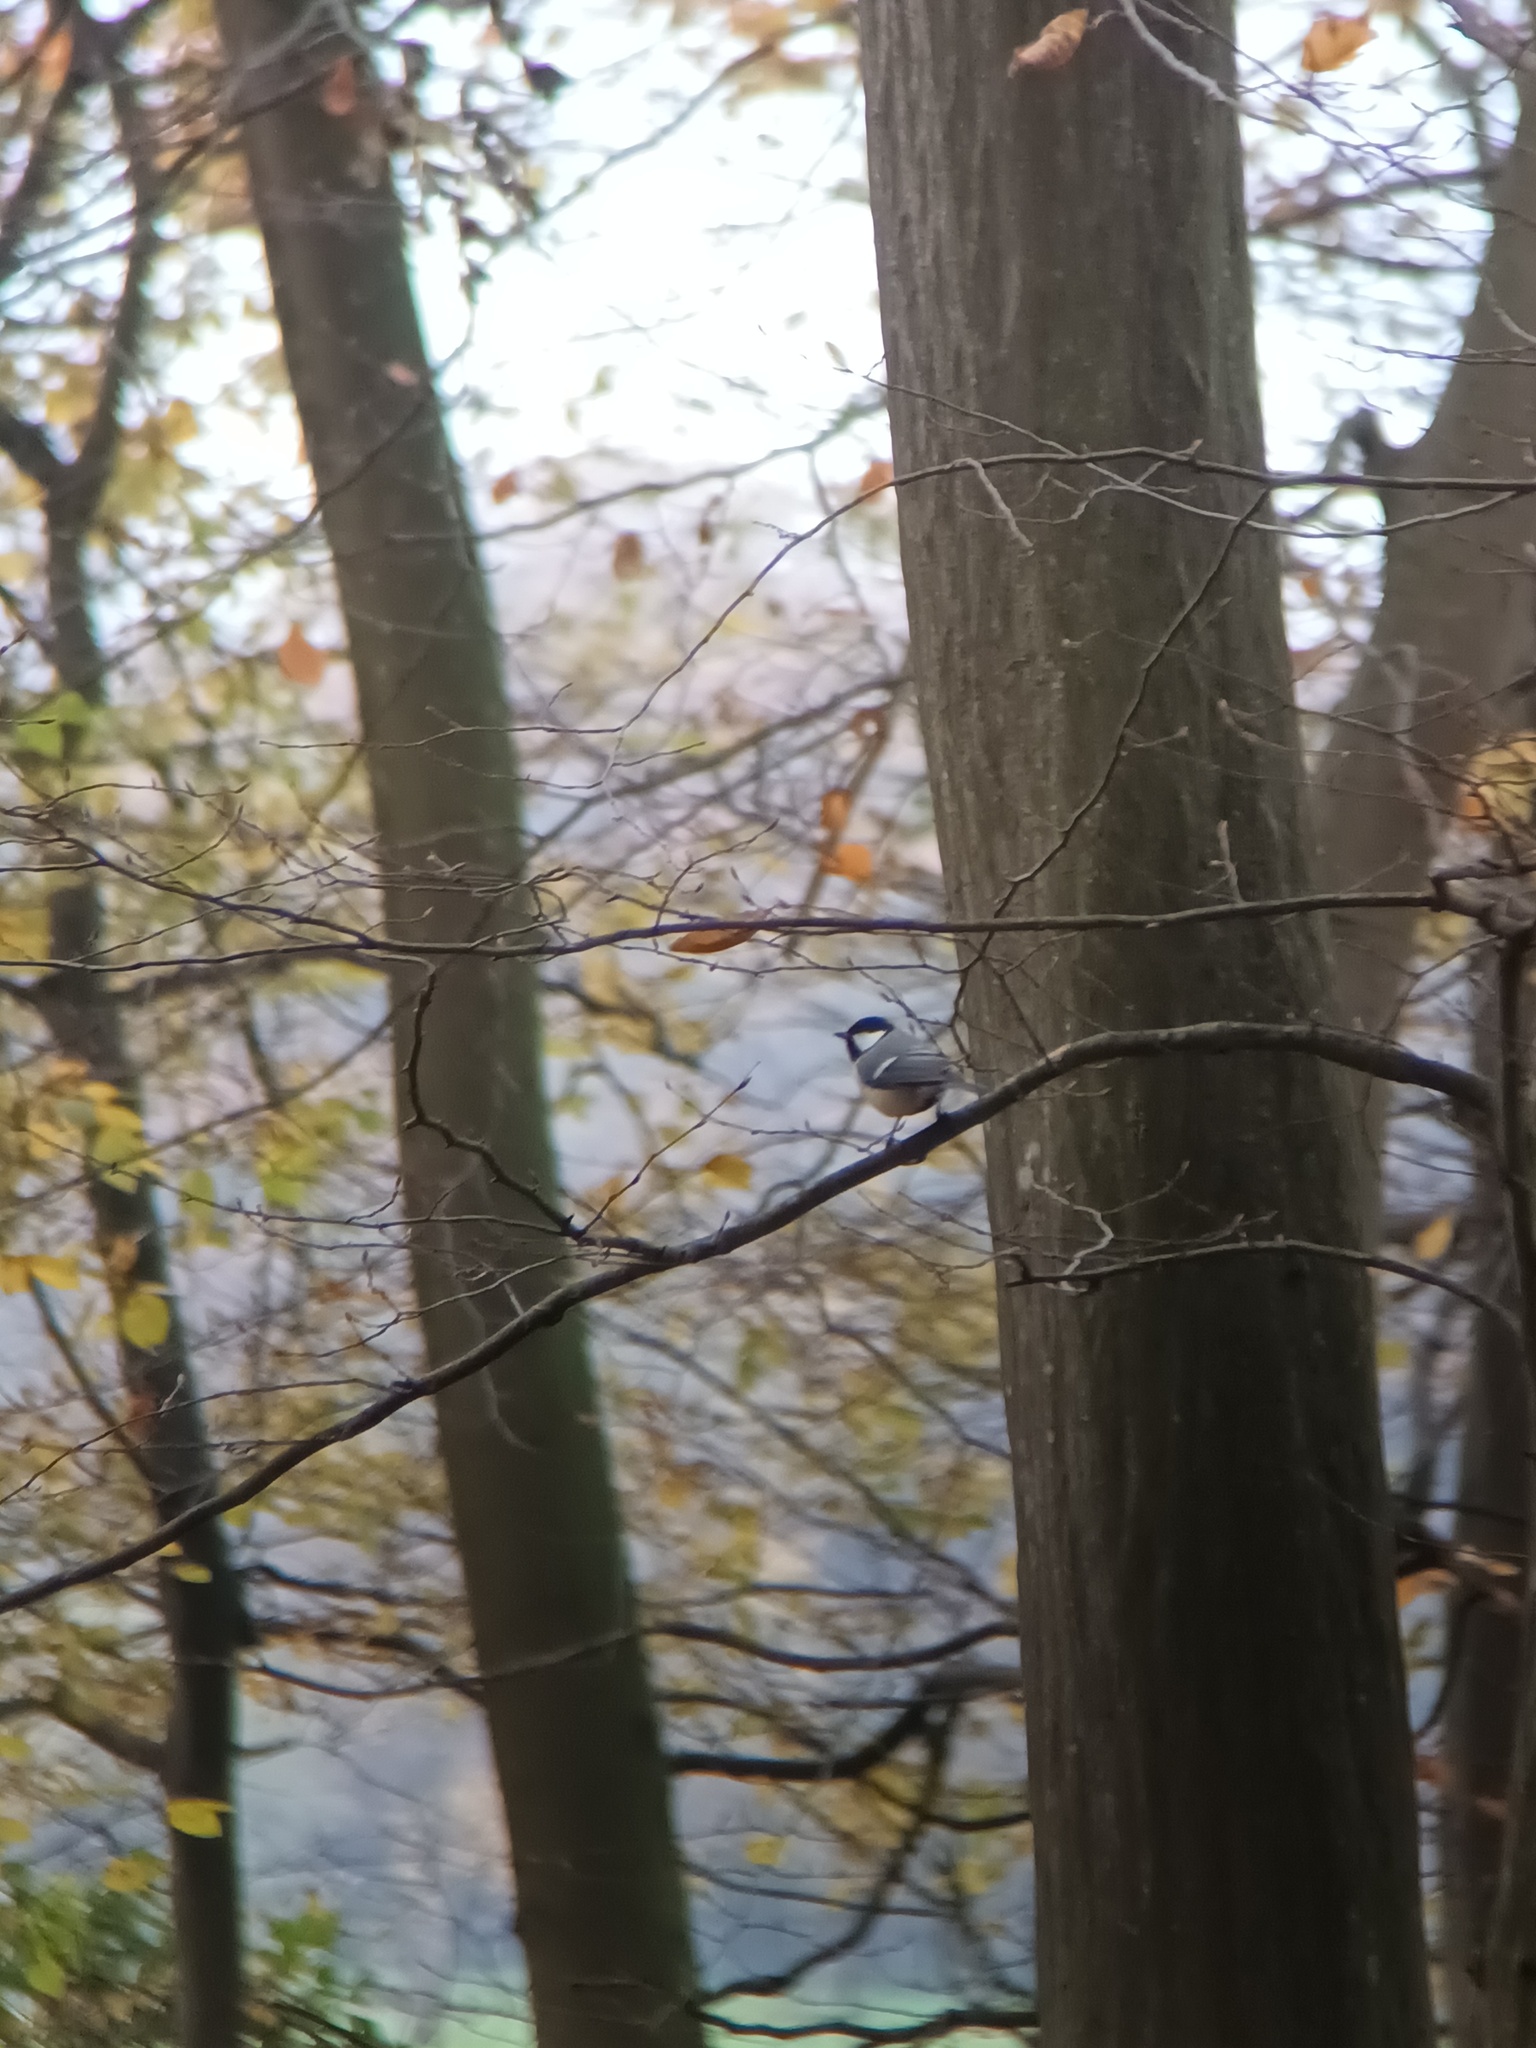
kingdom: Animalia
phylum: Chordata
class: Aves
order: Passeriformes
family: Paridae
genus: Parus
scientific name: Parus major
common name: Great tit
